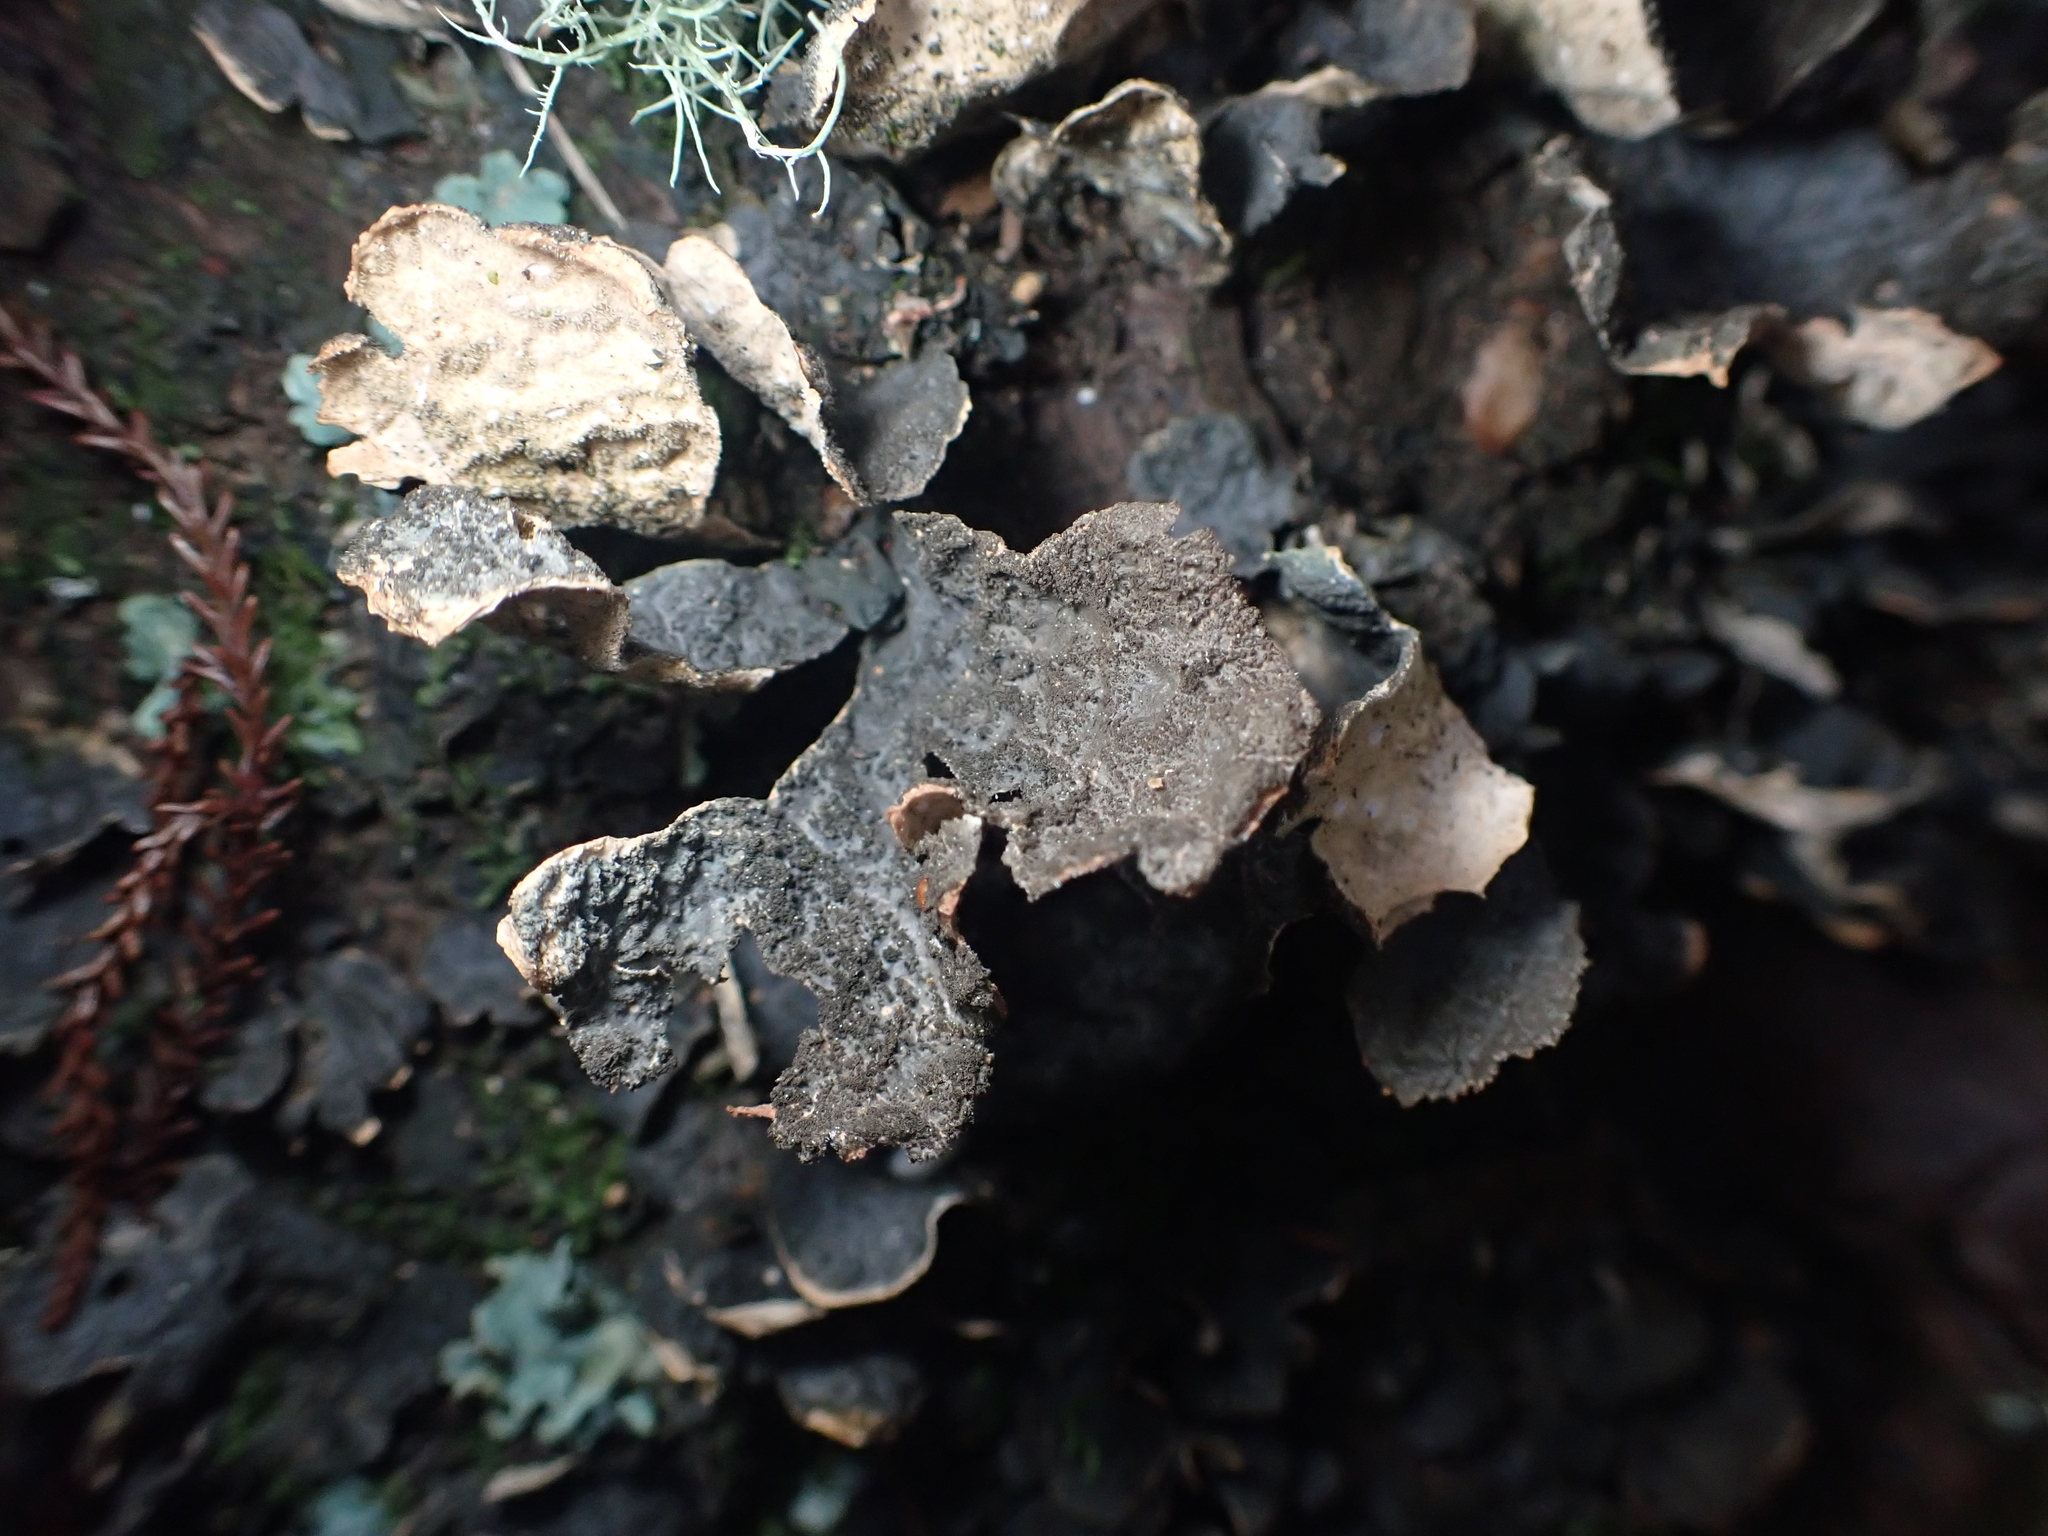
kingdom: Fungi
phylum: Ascomycota
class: Lecanoromycetes
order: Peltigerales
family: Lobariaceae
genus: Sticta
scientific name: Sticta fuliginosa
